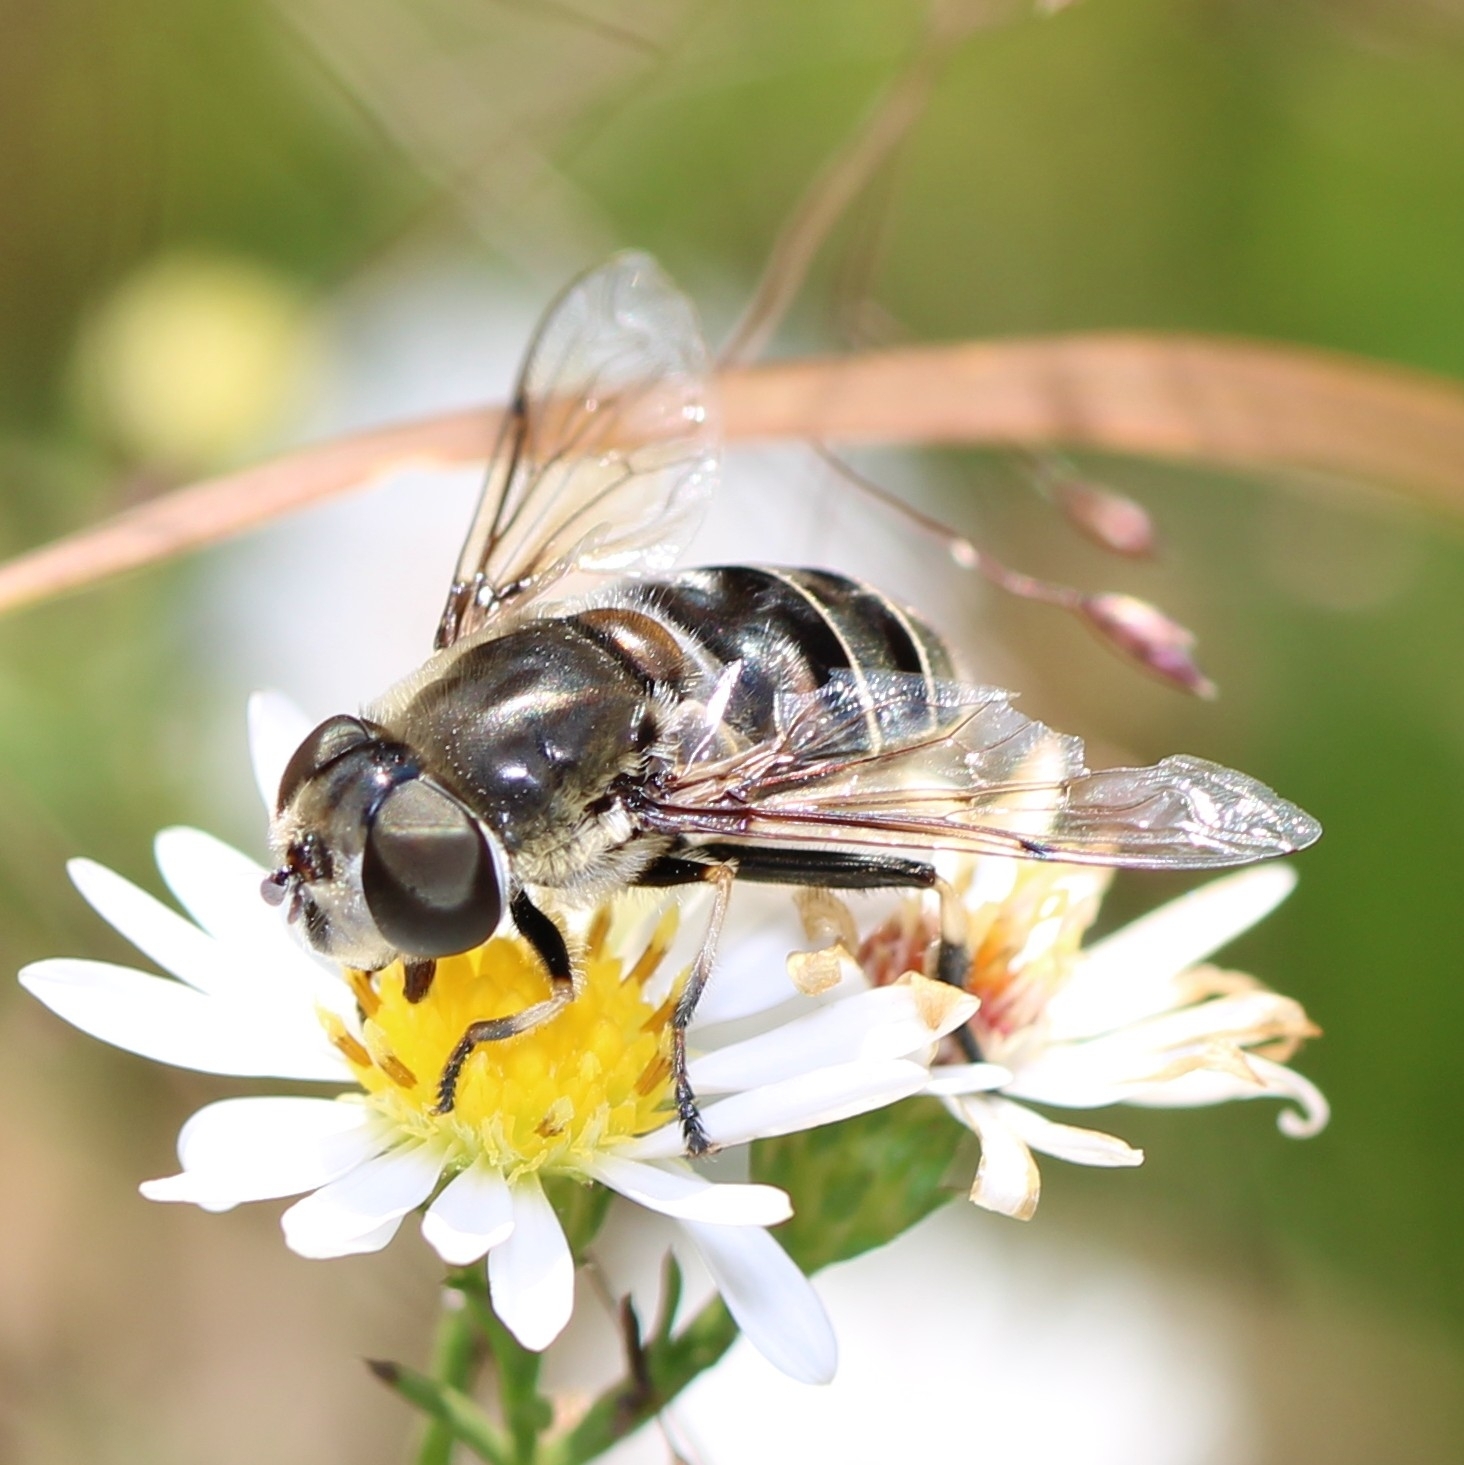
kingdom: Animalia
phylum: Arthropoda
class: Insecta
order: Diptera
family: Syrphidae
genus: Eristalis
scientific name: Eristalis dimidiata
